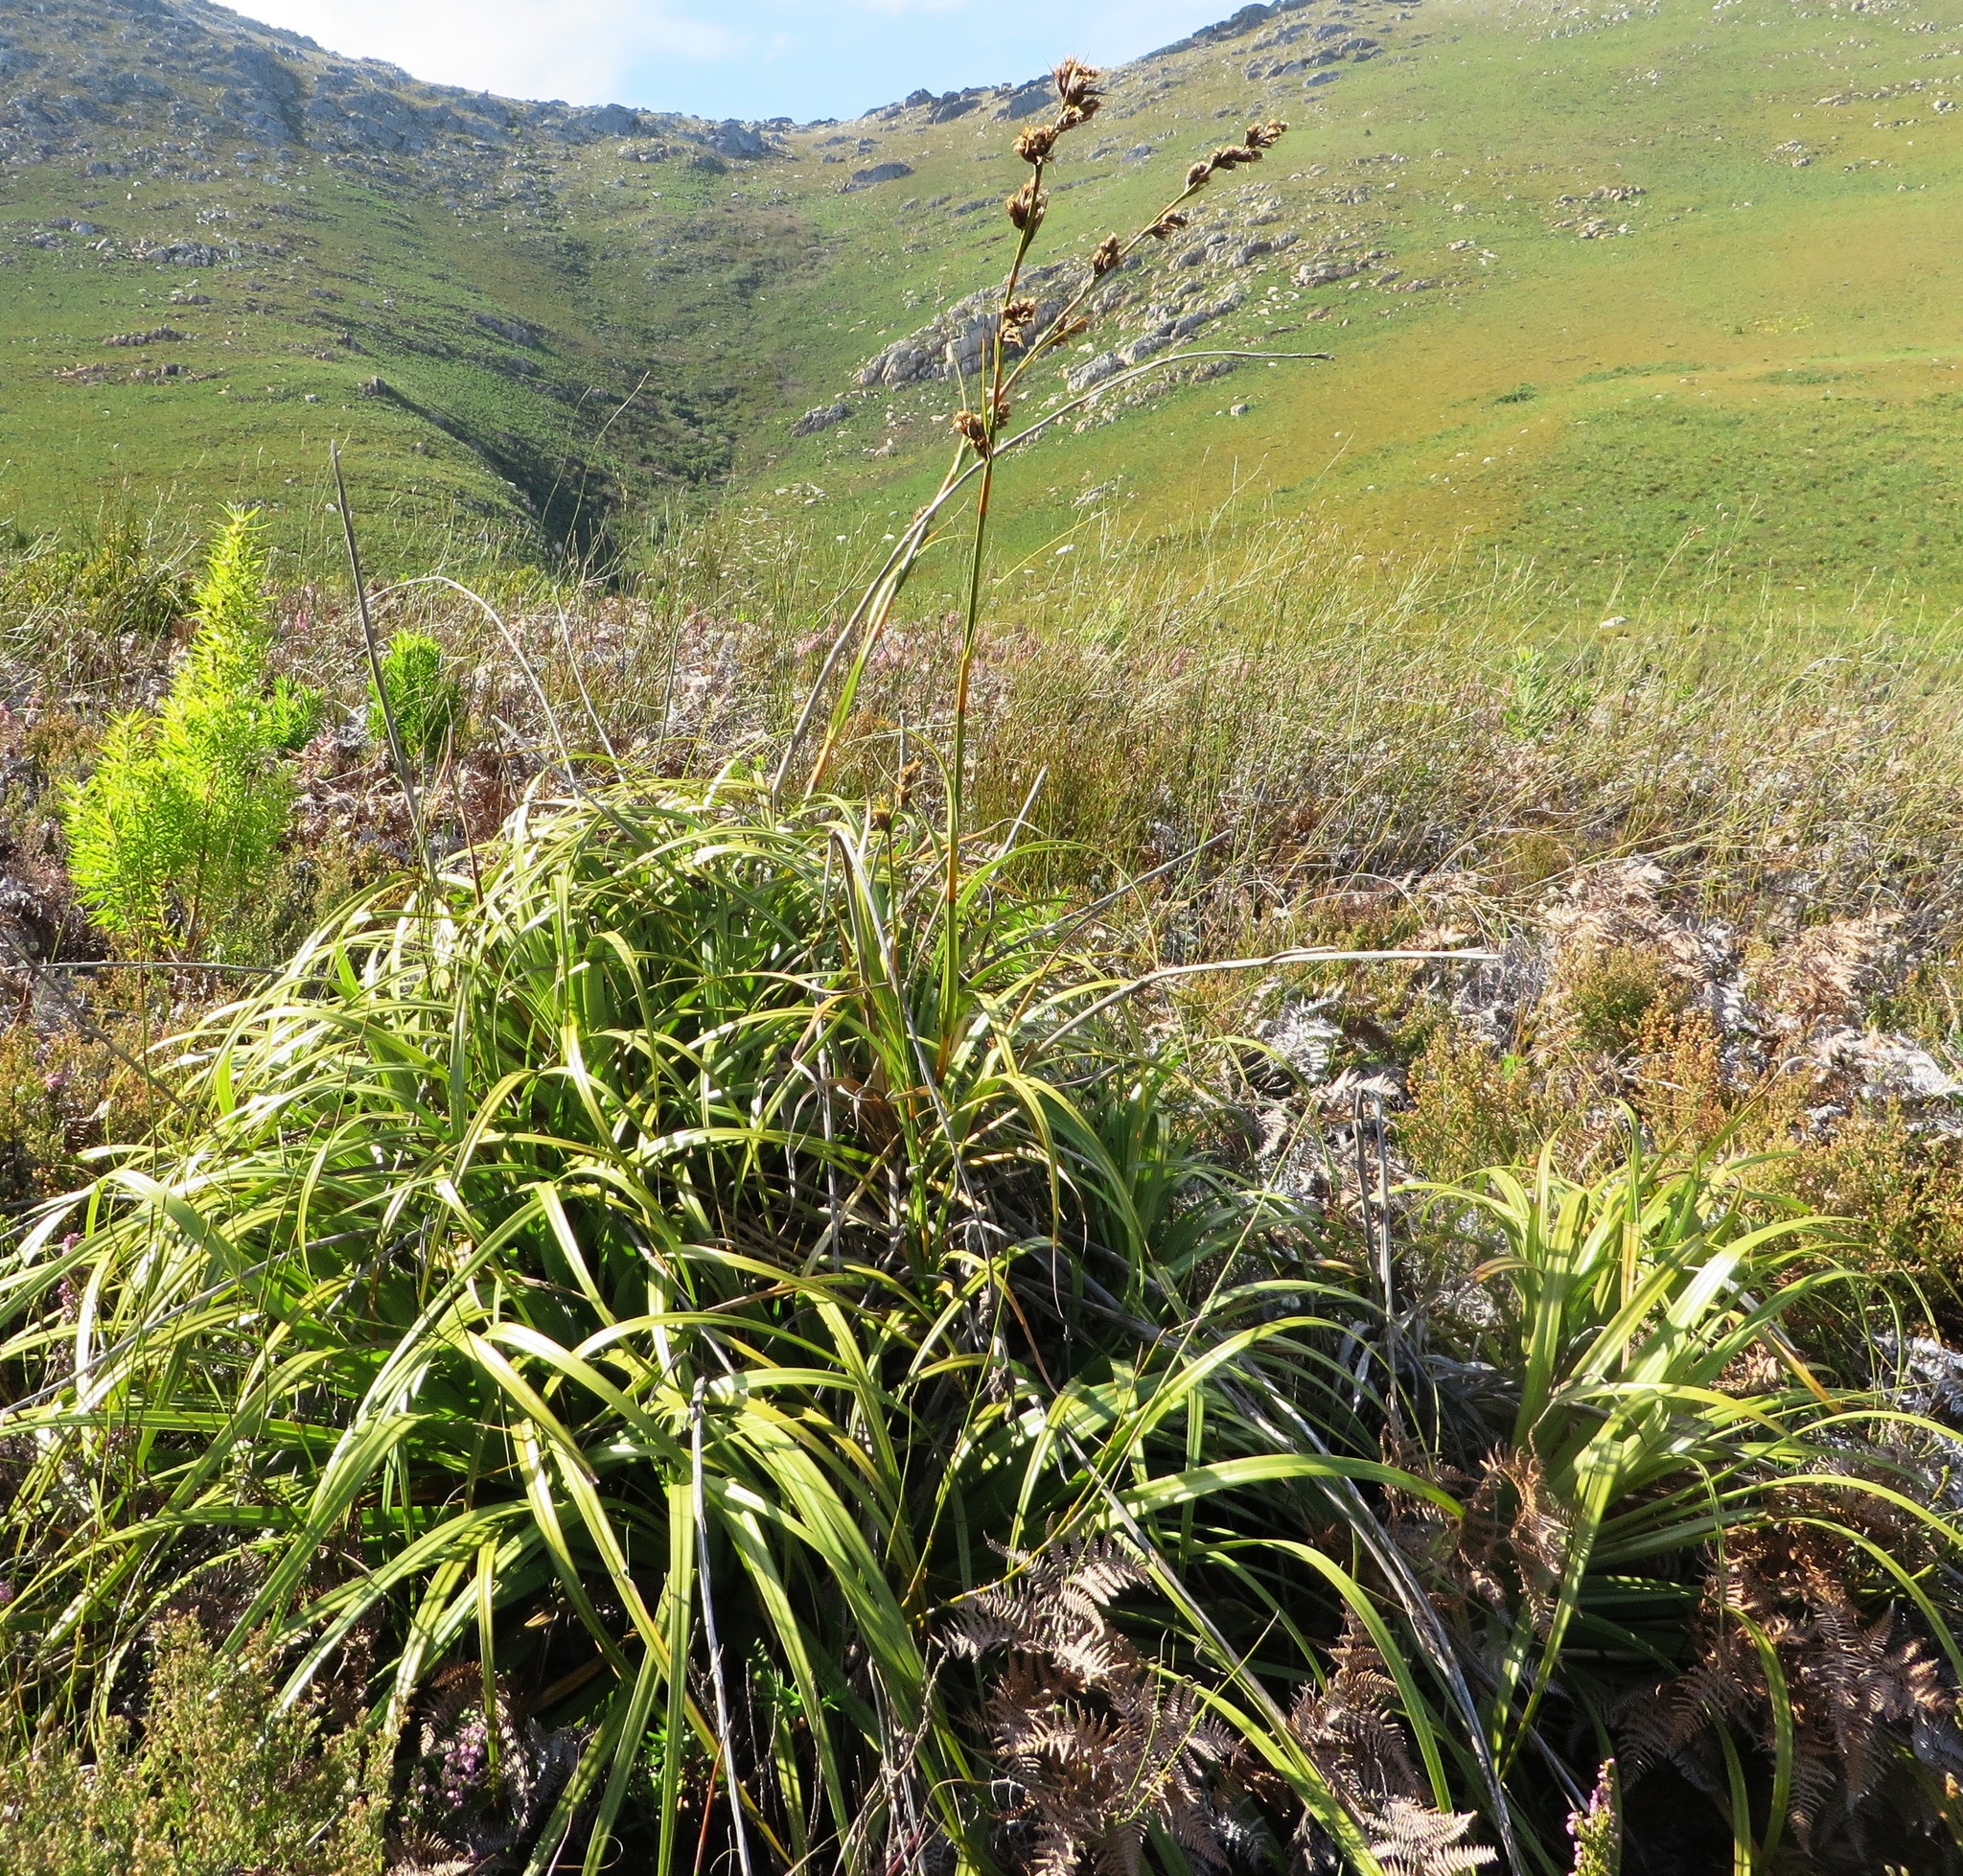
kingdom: Plantae
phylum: Tracheophyta
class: Liliopsida
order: Poales
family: Cyperaceae
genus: Tetraria
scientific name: Tetraria thermalis
